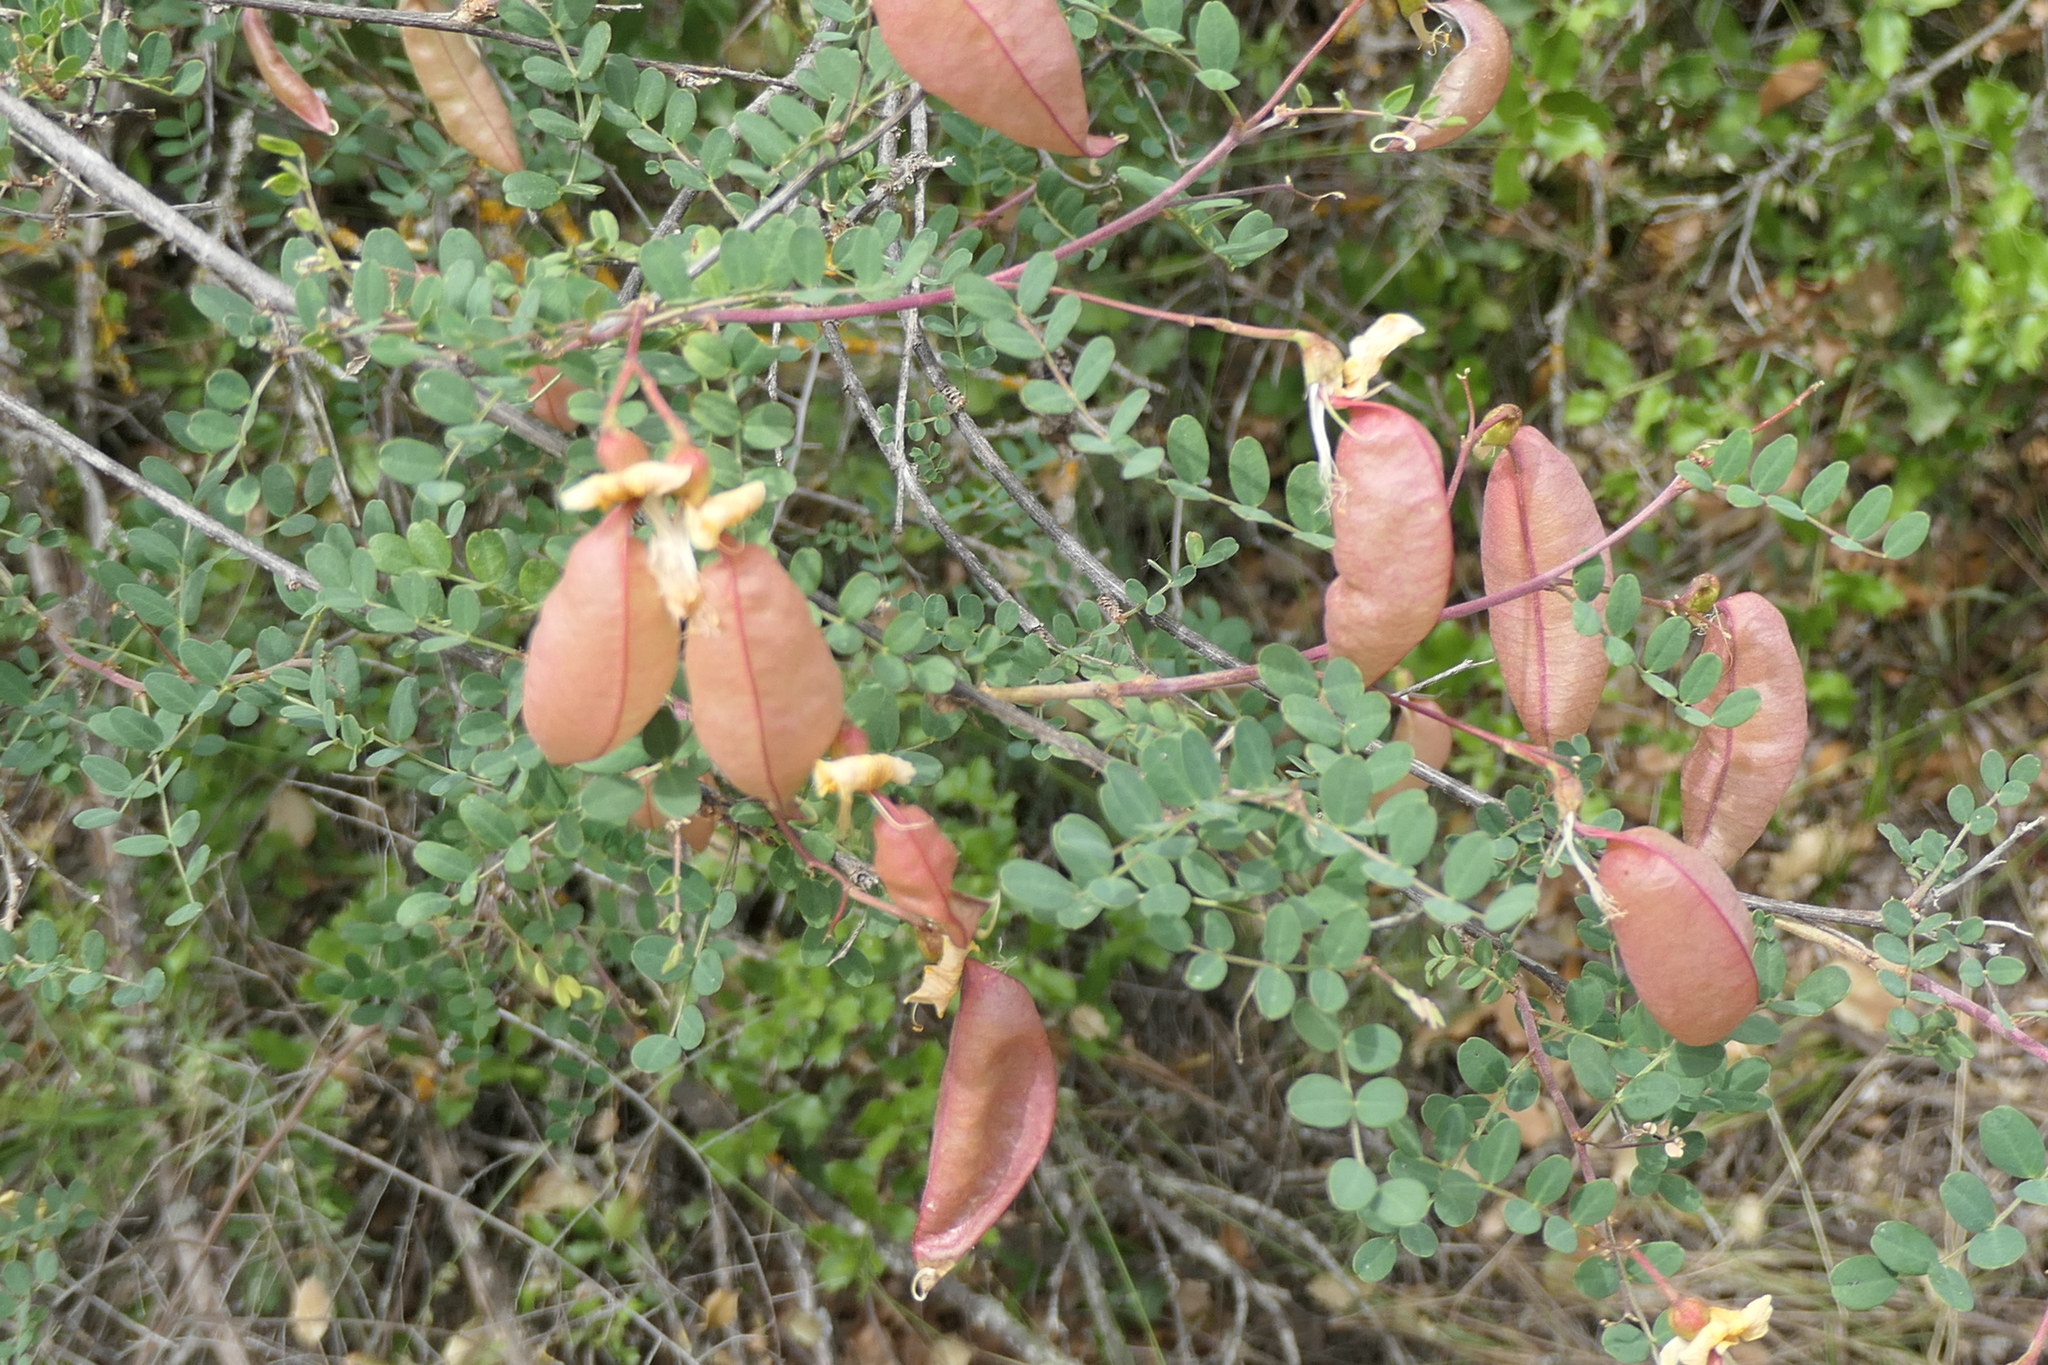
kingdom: Plantae
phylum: Tracheophyta
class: Magnoliopsida
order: Fabales
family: Fabaceae
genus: Colutea
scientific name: Colutea arborescens
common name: Bladder-senna
